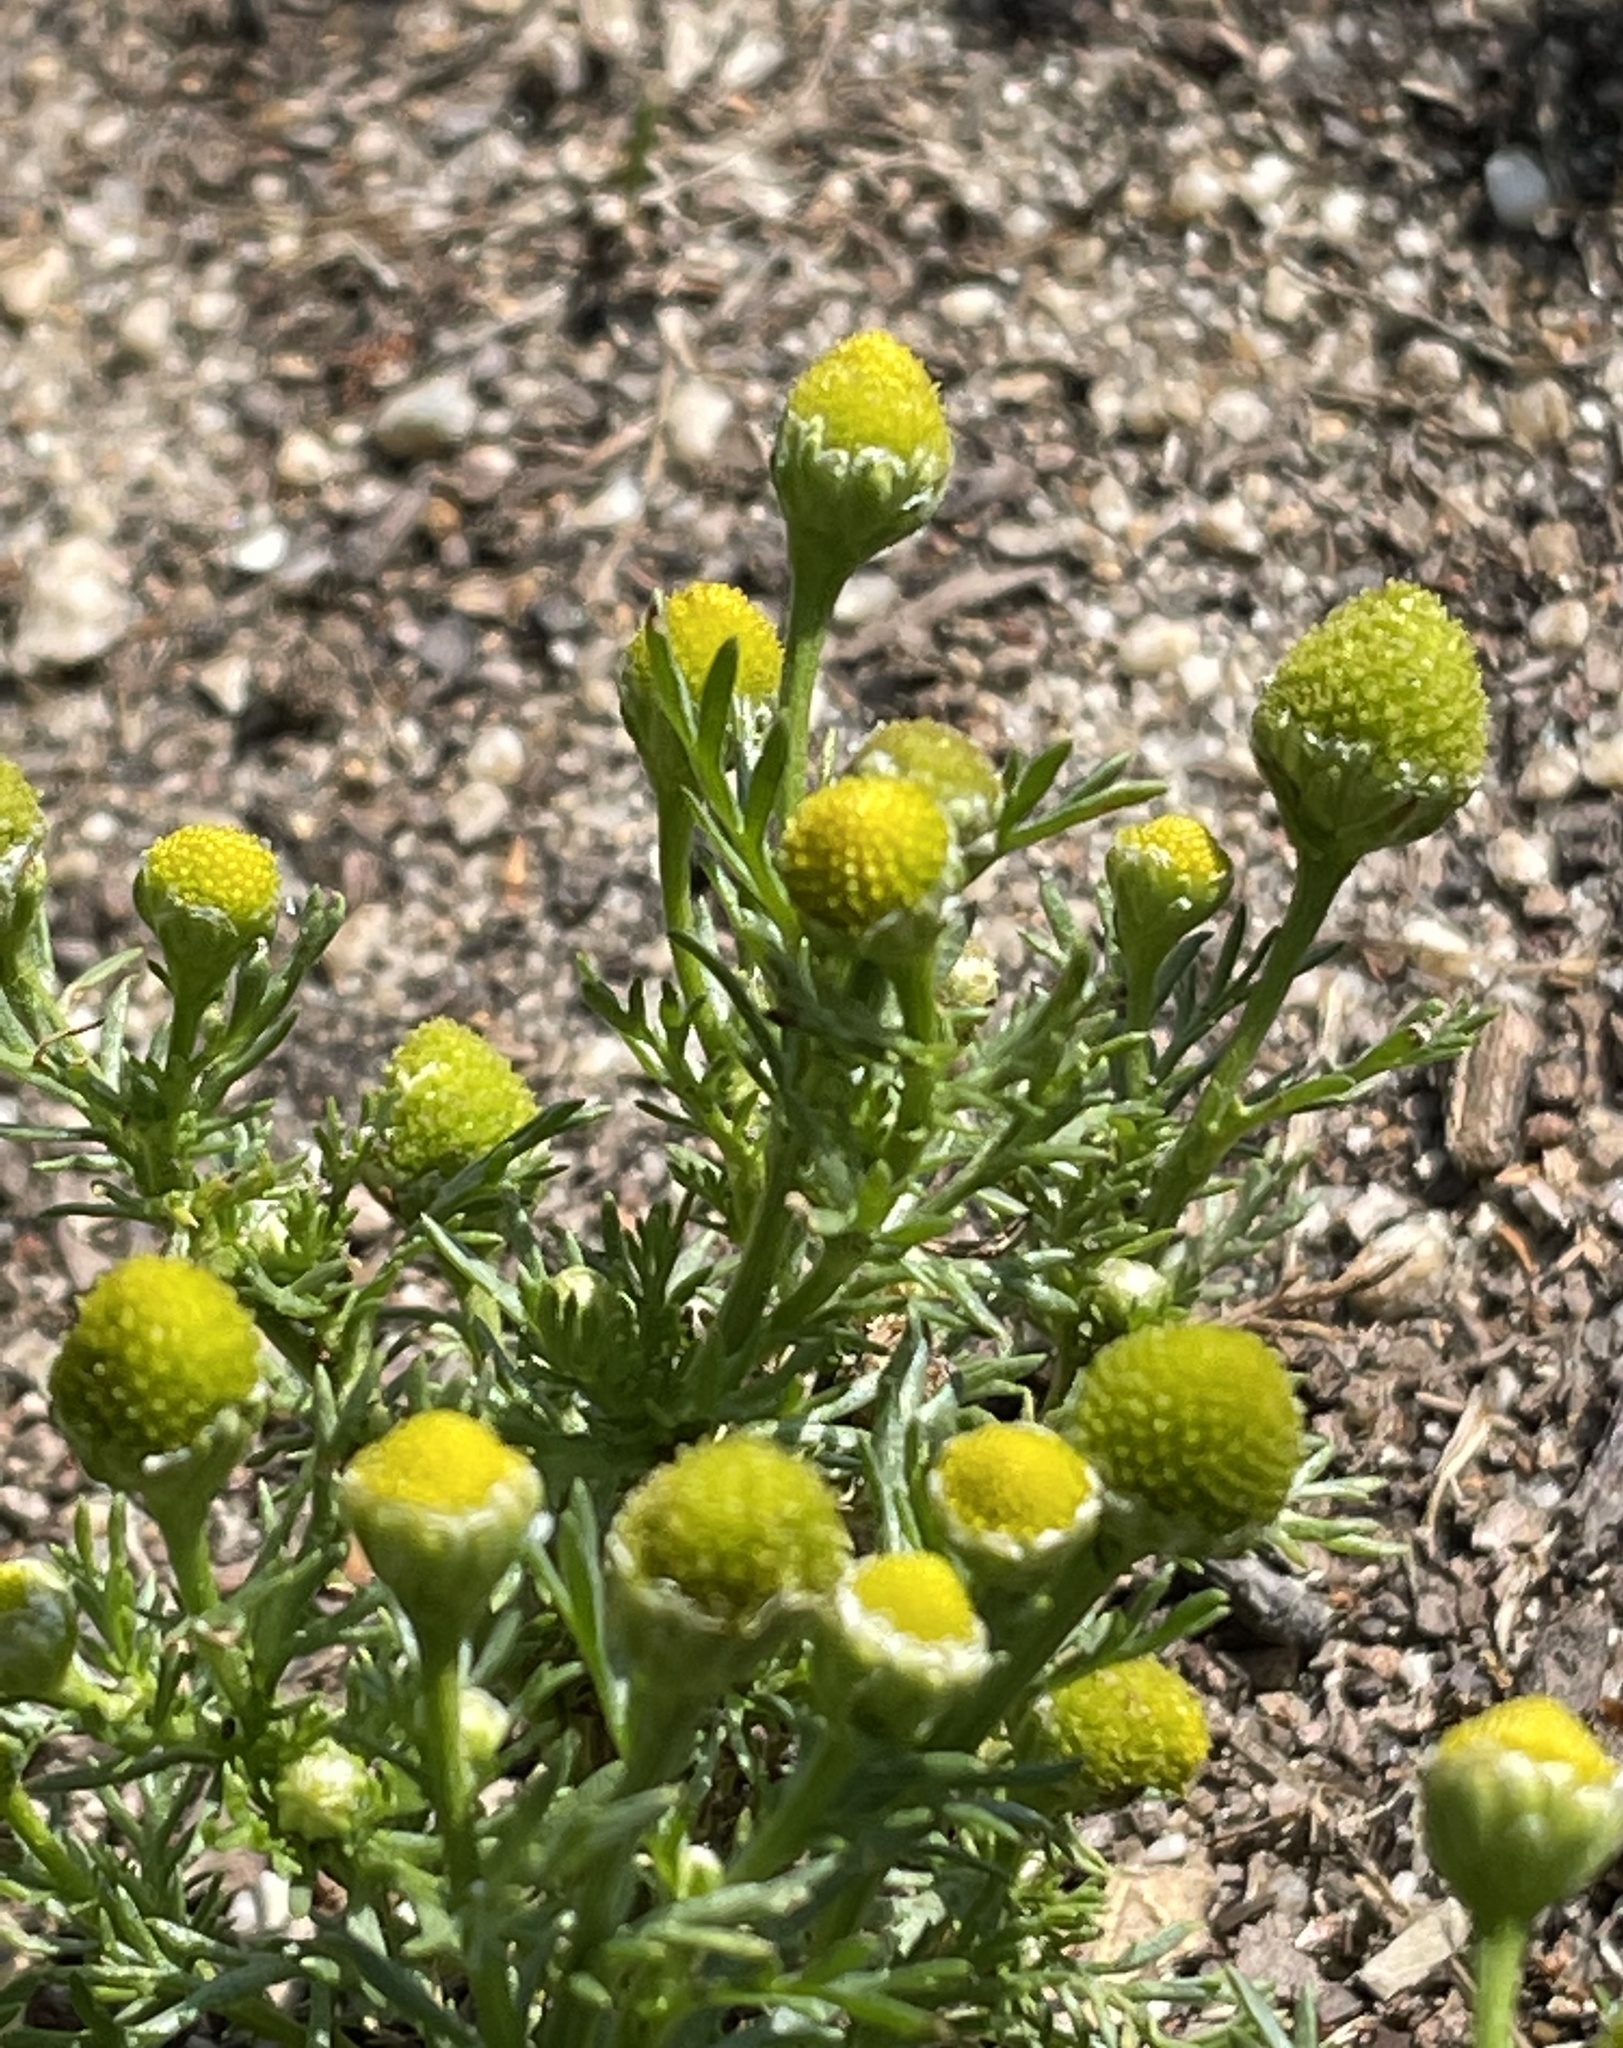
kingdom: Plantae
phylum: Tracheophyta
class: Magnoliopsida
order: Asterales
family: Asteraceae
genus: Matricaria
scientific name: Matricaria discoidea
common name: Disc mayweed
